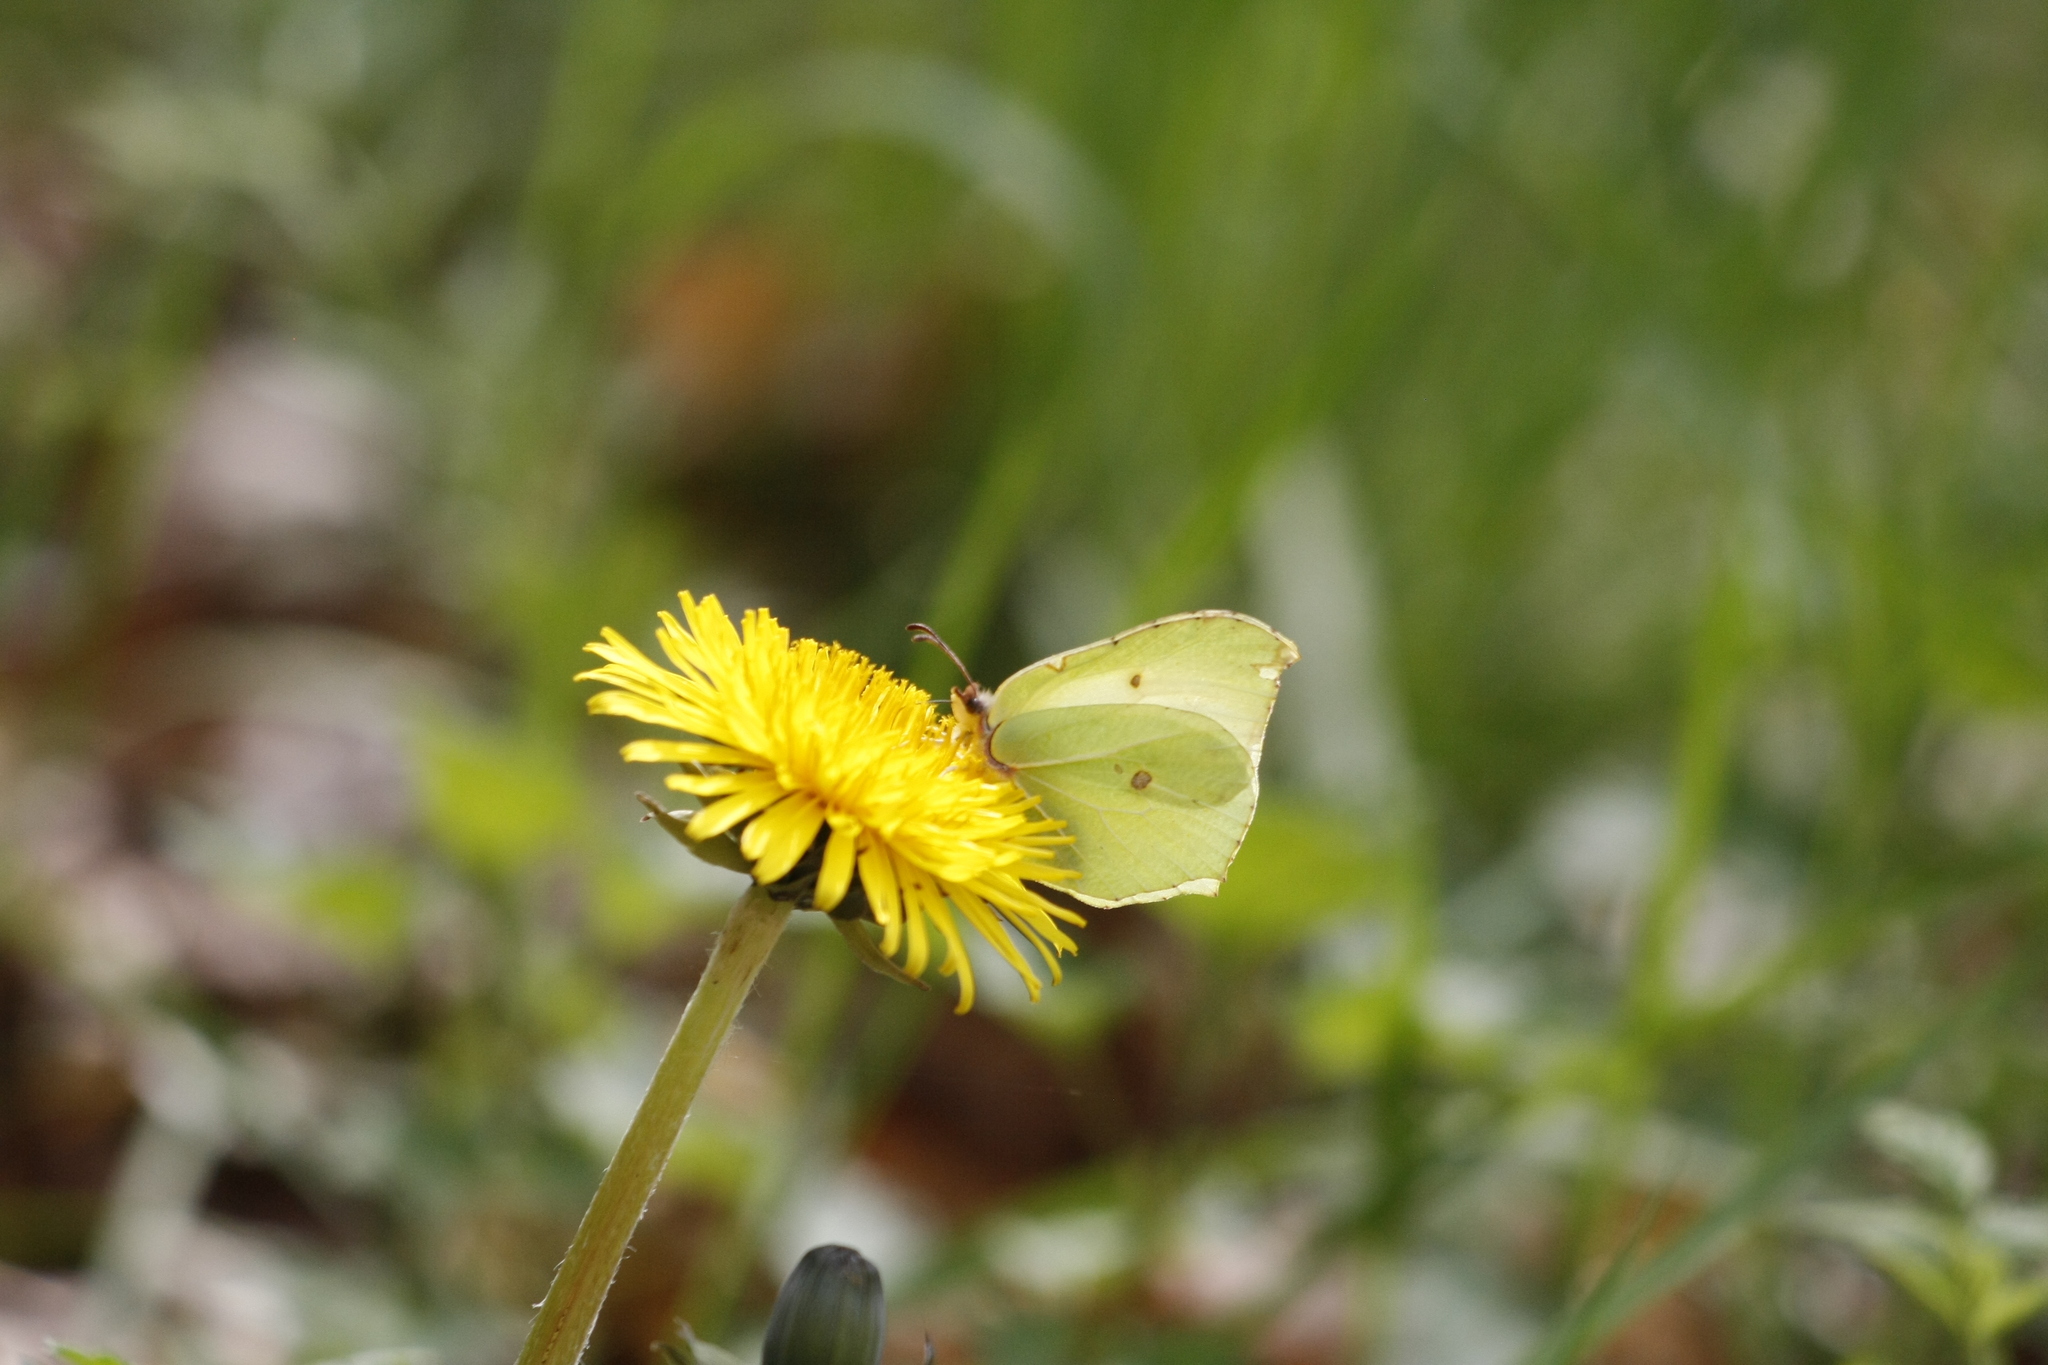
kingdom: Animalia
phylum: Arthropoda
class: Insecta
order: Lepidoptera
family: Pieridae
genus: Gonepteryx
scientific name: Gonepteryx rhamni
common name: Brimstone
